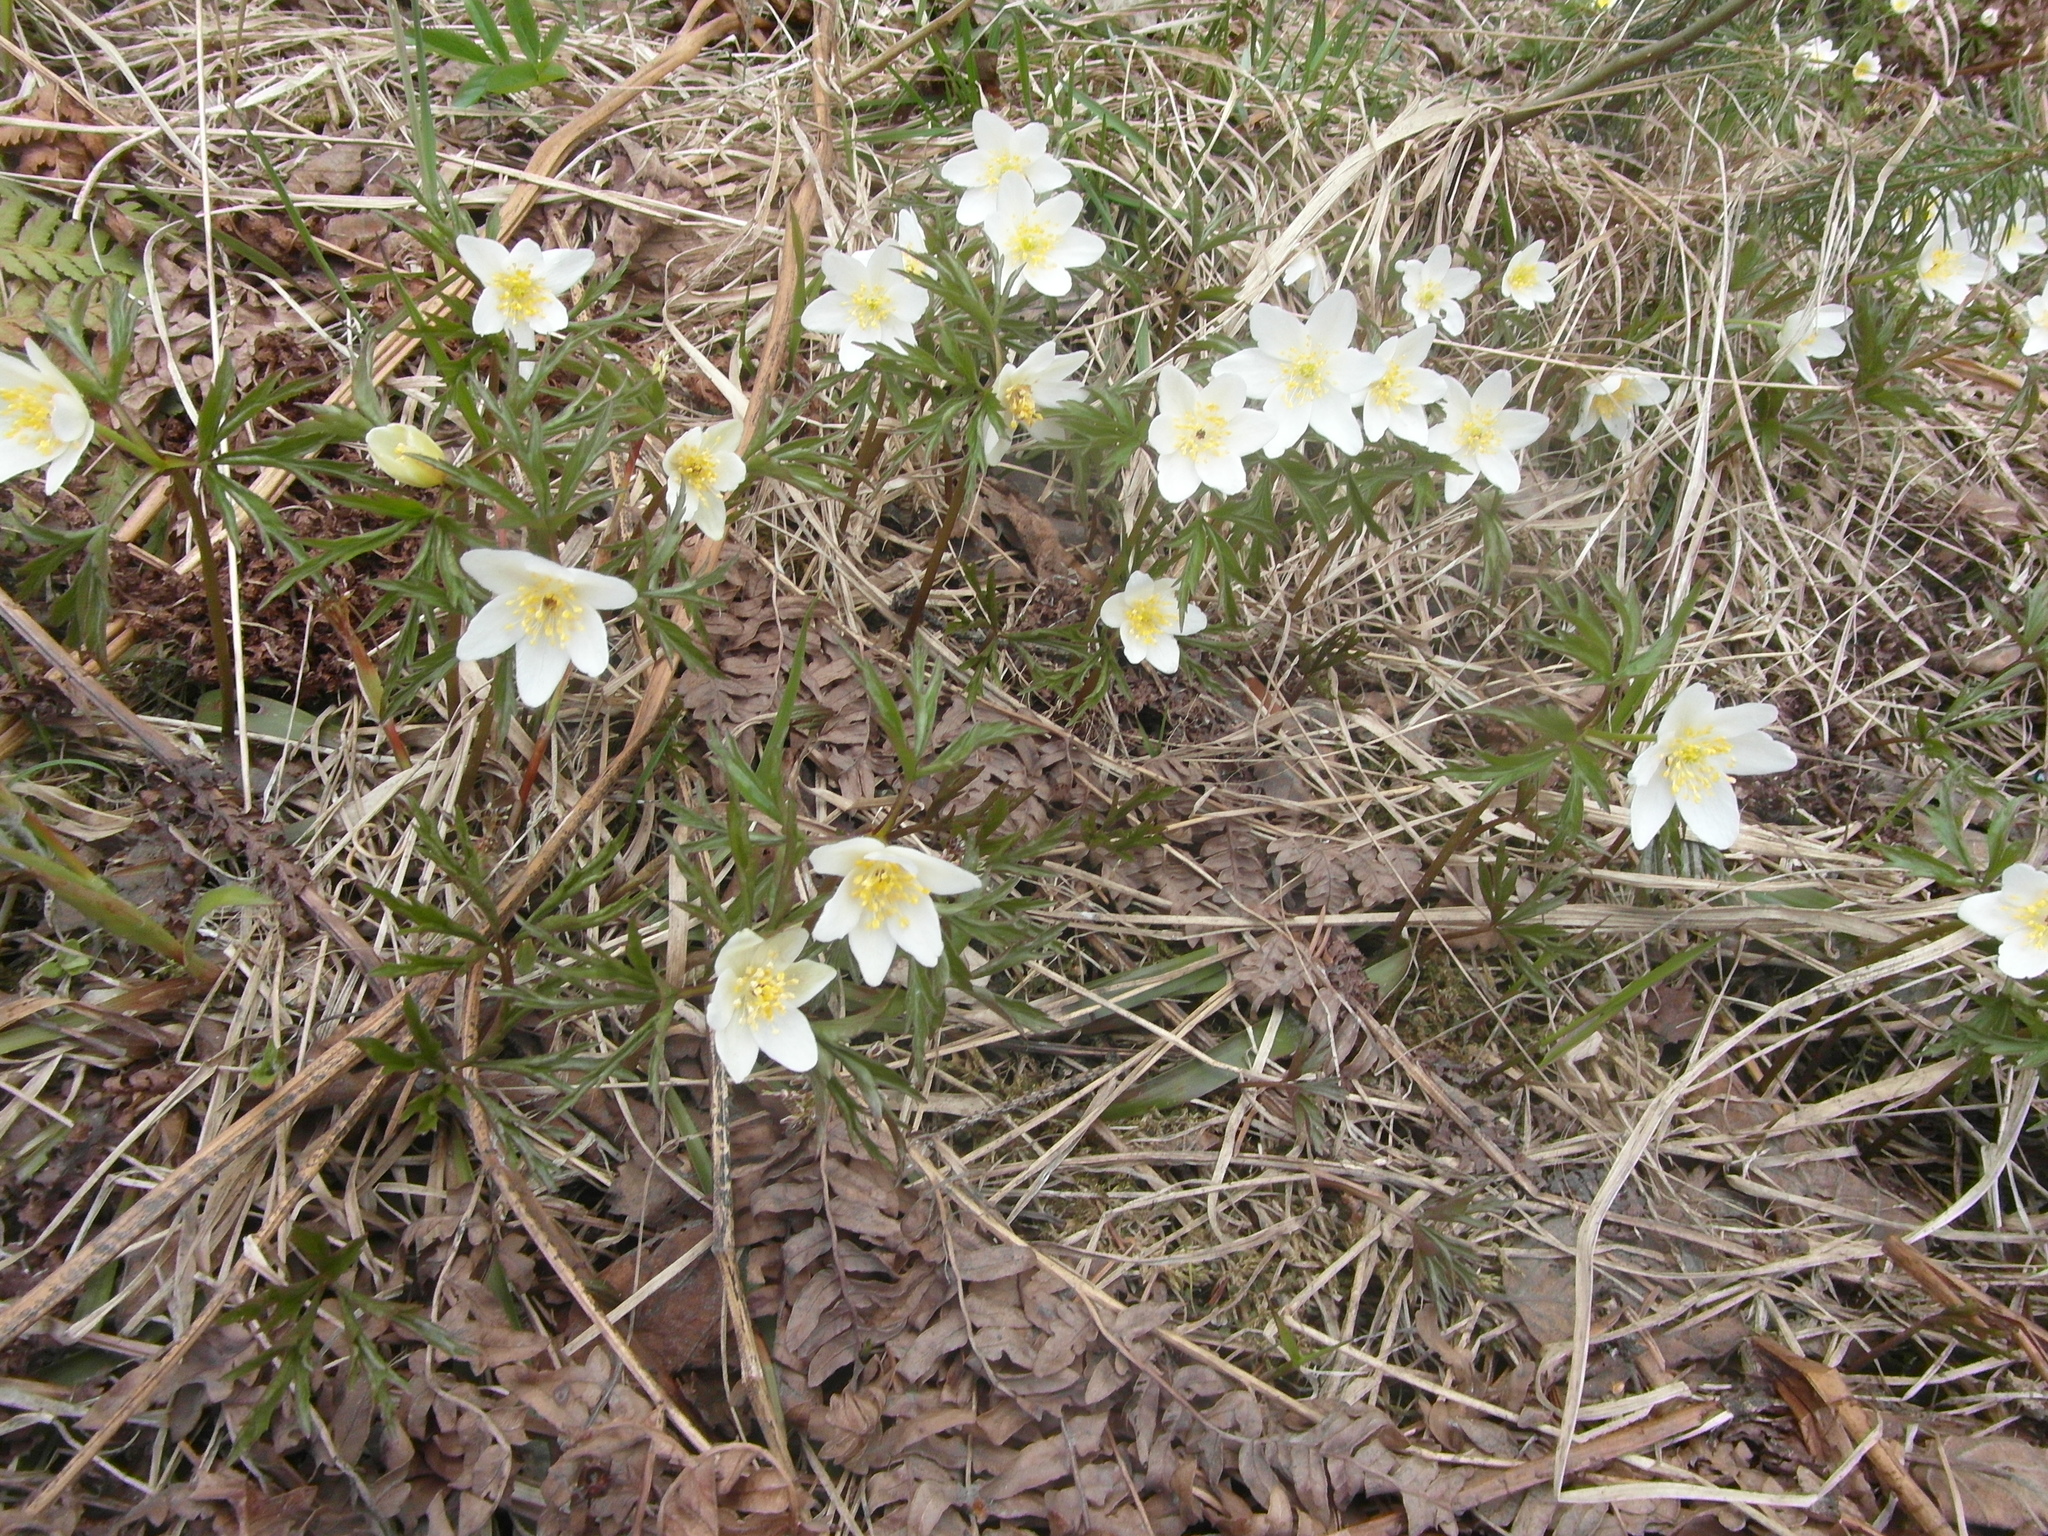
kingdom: Plantae
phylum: Tracheophyta
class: Magnoliopsida
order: Ranunculales
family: Ranunculaceae
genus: Anemone
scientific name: Anemone nemorosa
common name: Wood anemone
